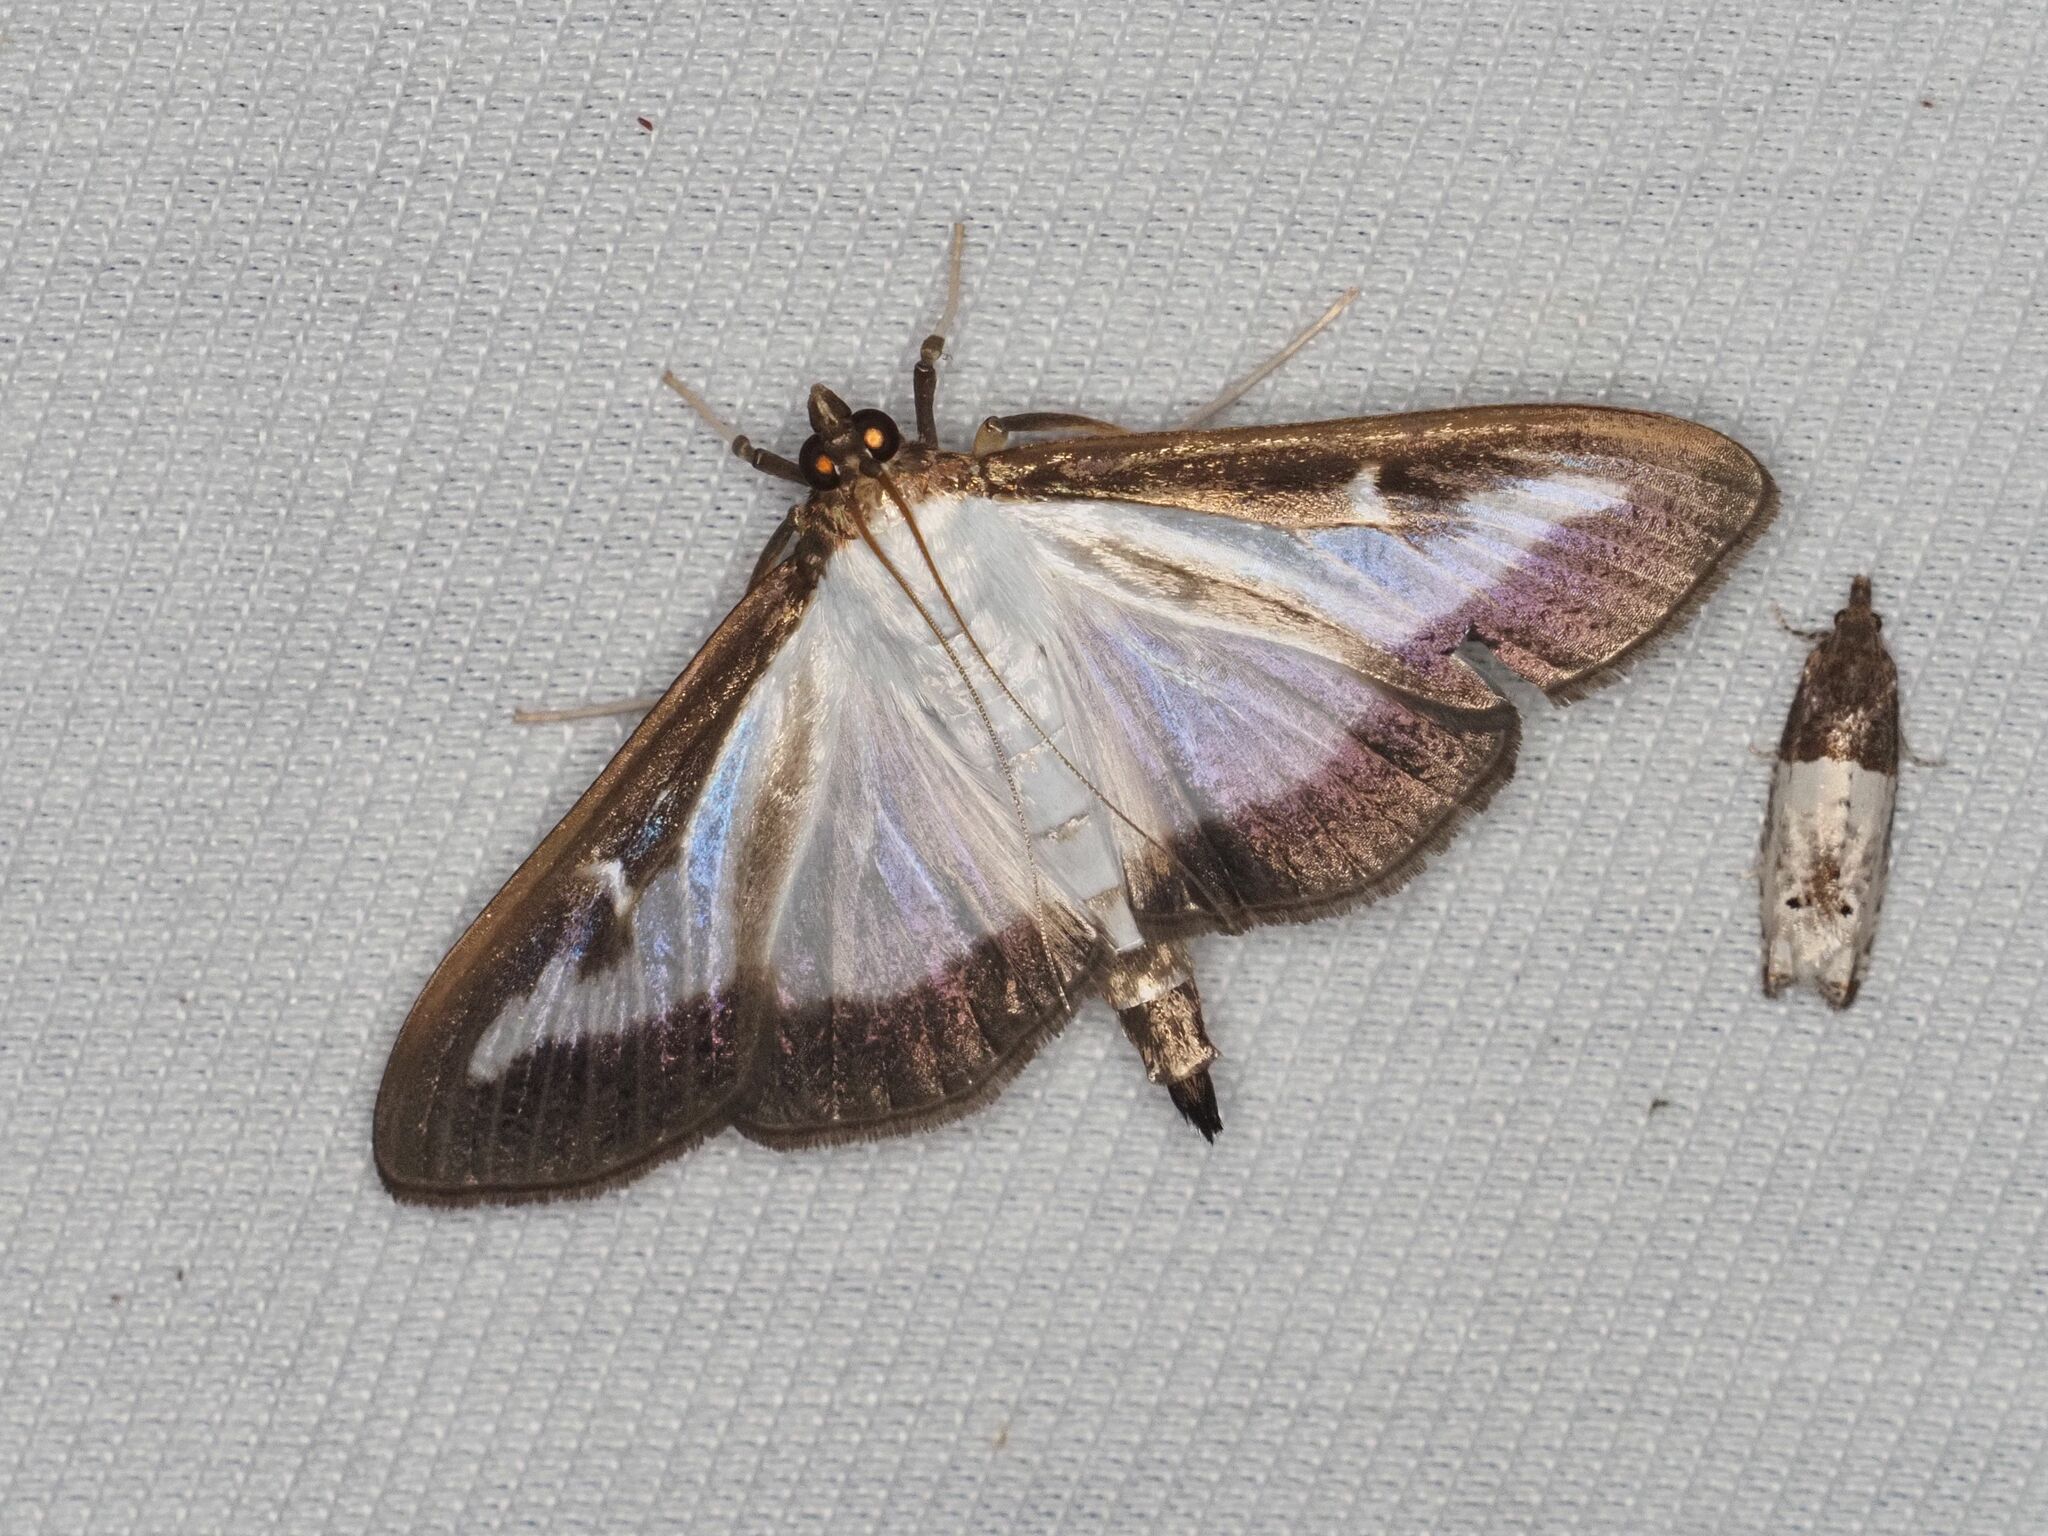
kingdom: Animalia
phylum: Arthropoda
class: Insecta
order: Lepidoptera
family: Crambidae
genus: Cydalima
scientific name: Cydalima perspectalis
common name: Box tree moth
